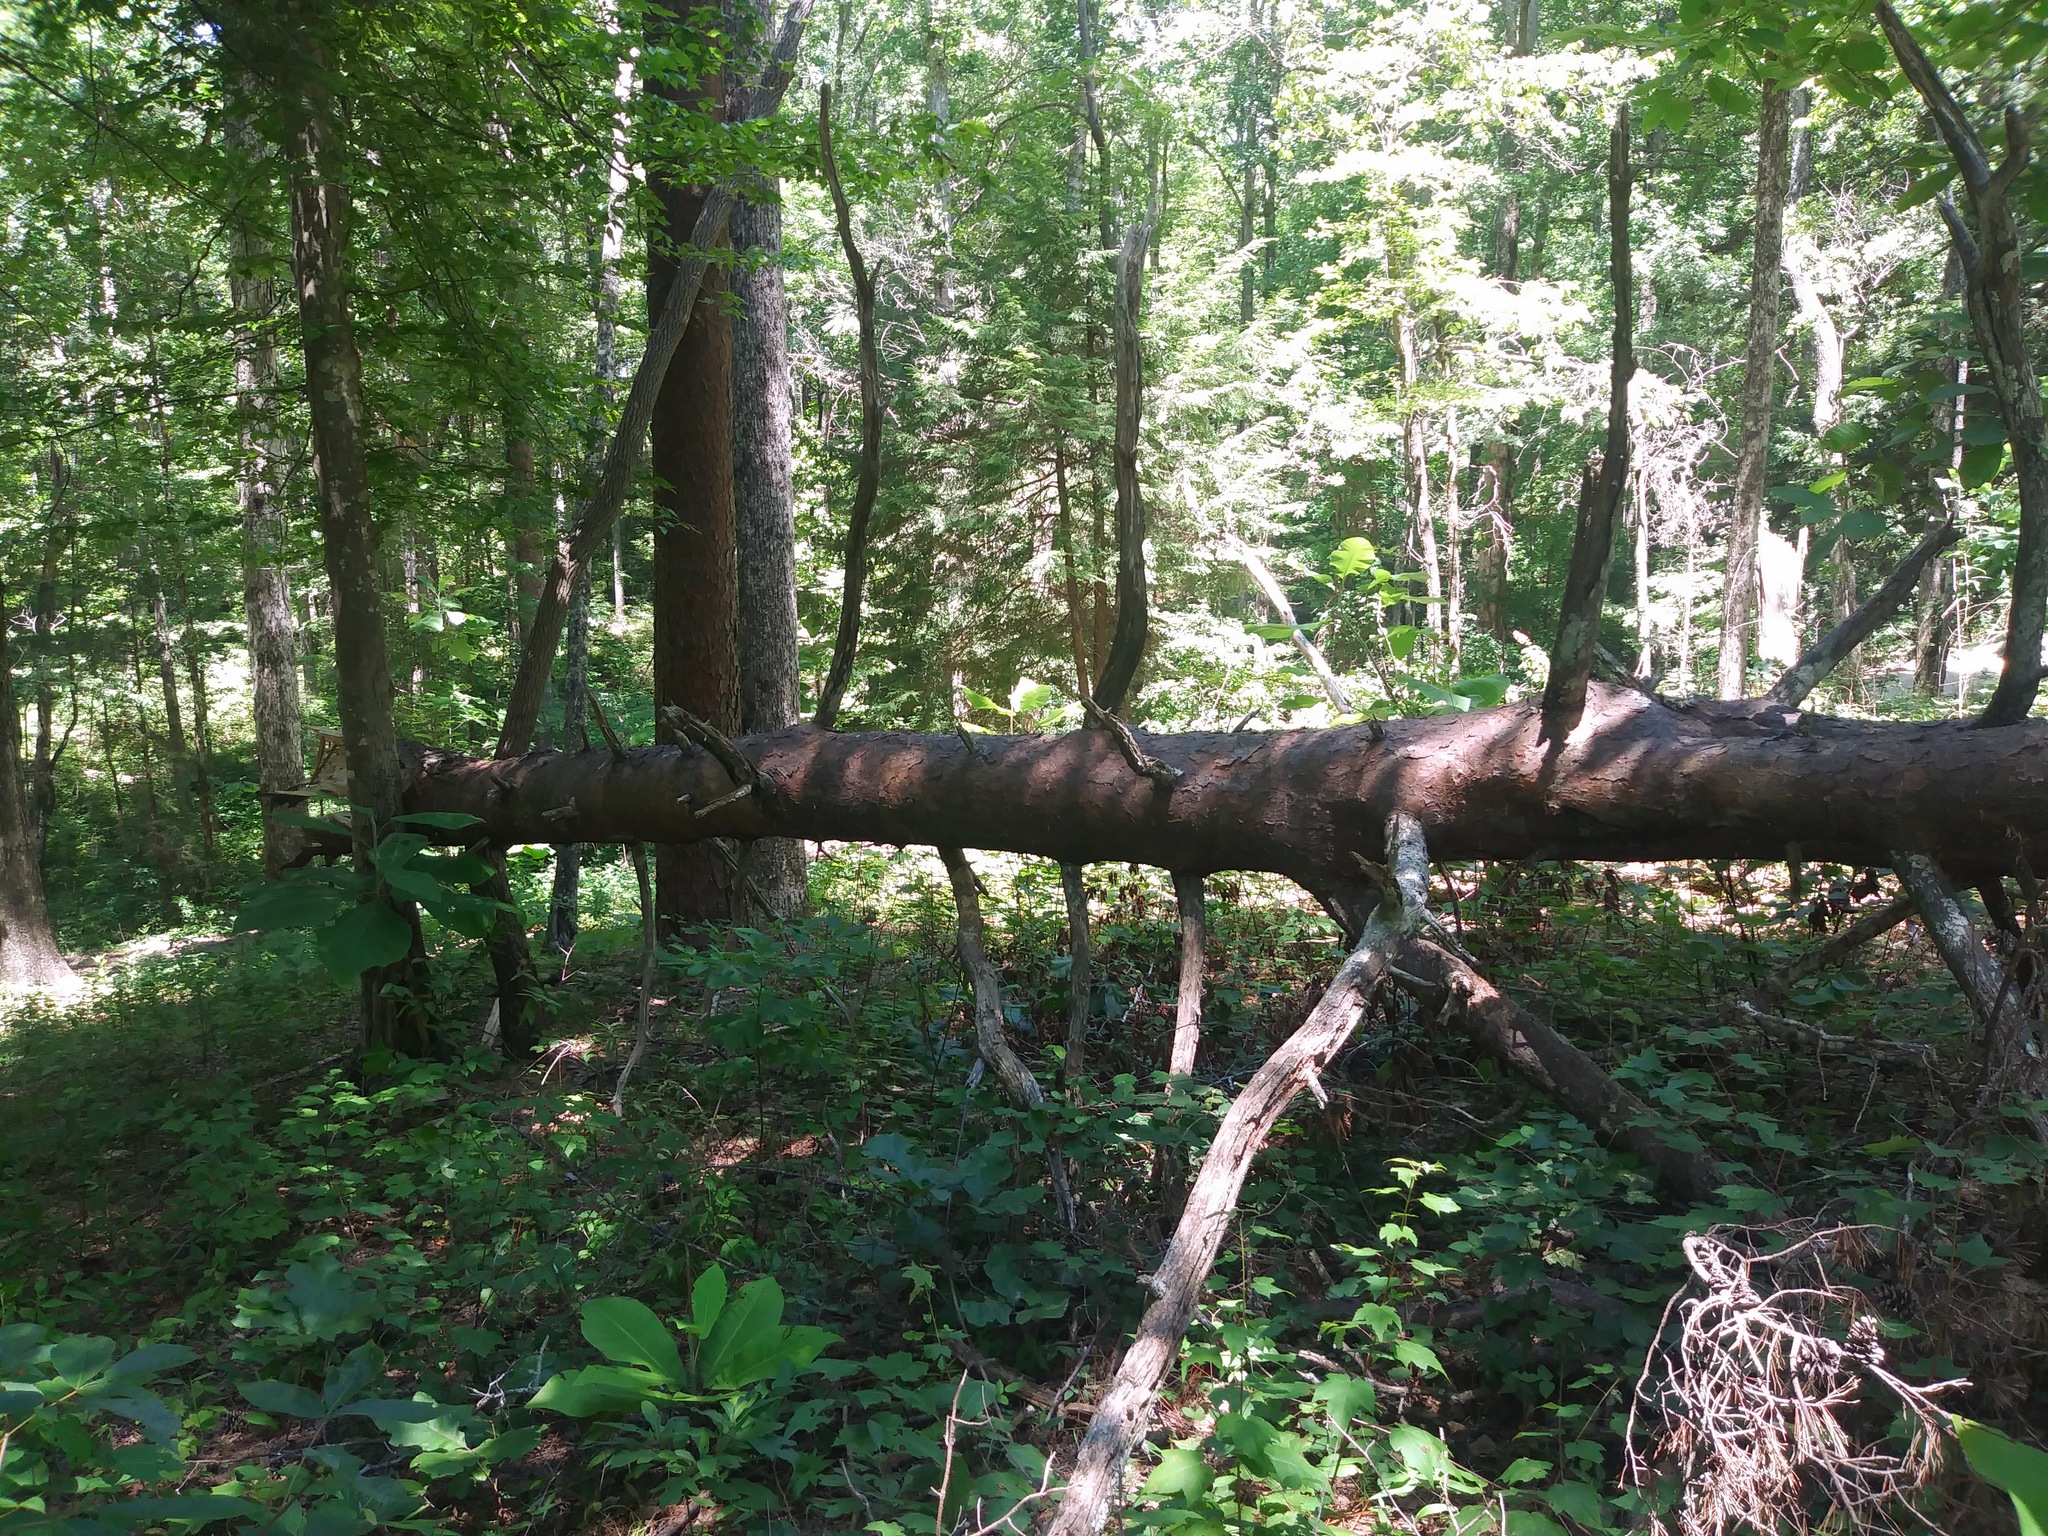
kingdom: Plantae
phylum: Tracheophyta
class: Pinopsida
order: Pinales
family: Pinaceae
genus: Pinus
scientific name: Pinus virginiana
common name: Scrub pine
